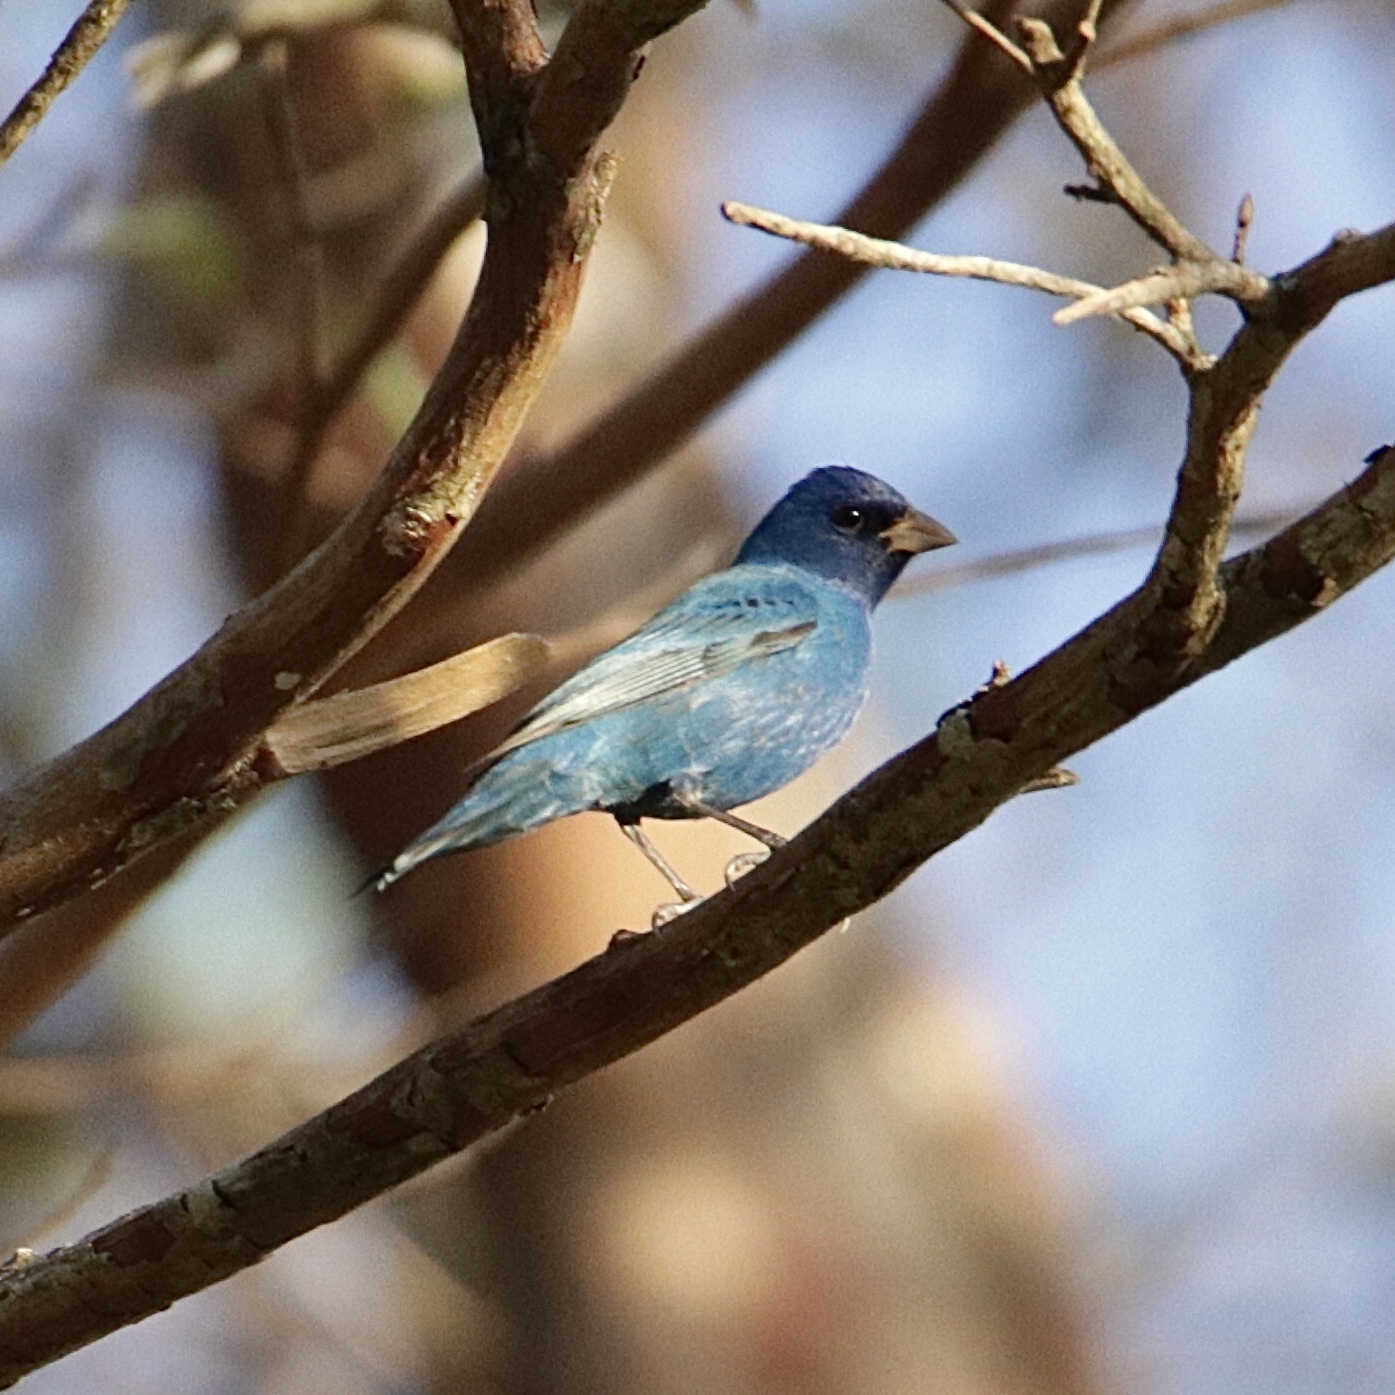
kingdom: Animalia
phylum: Chordata
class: Aves
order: Passeriformes
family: Cardinalidae
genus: Passerina
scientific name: Passerina cyanea
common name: Indigo bunting
